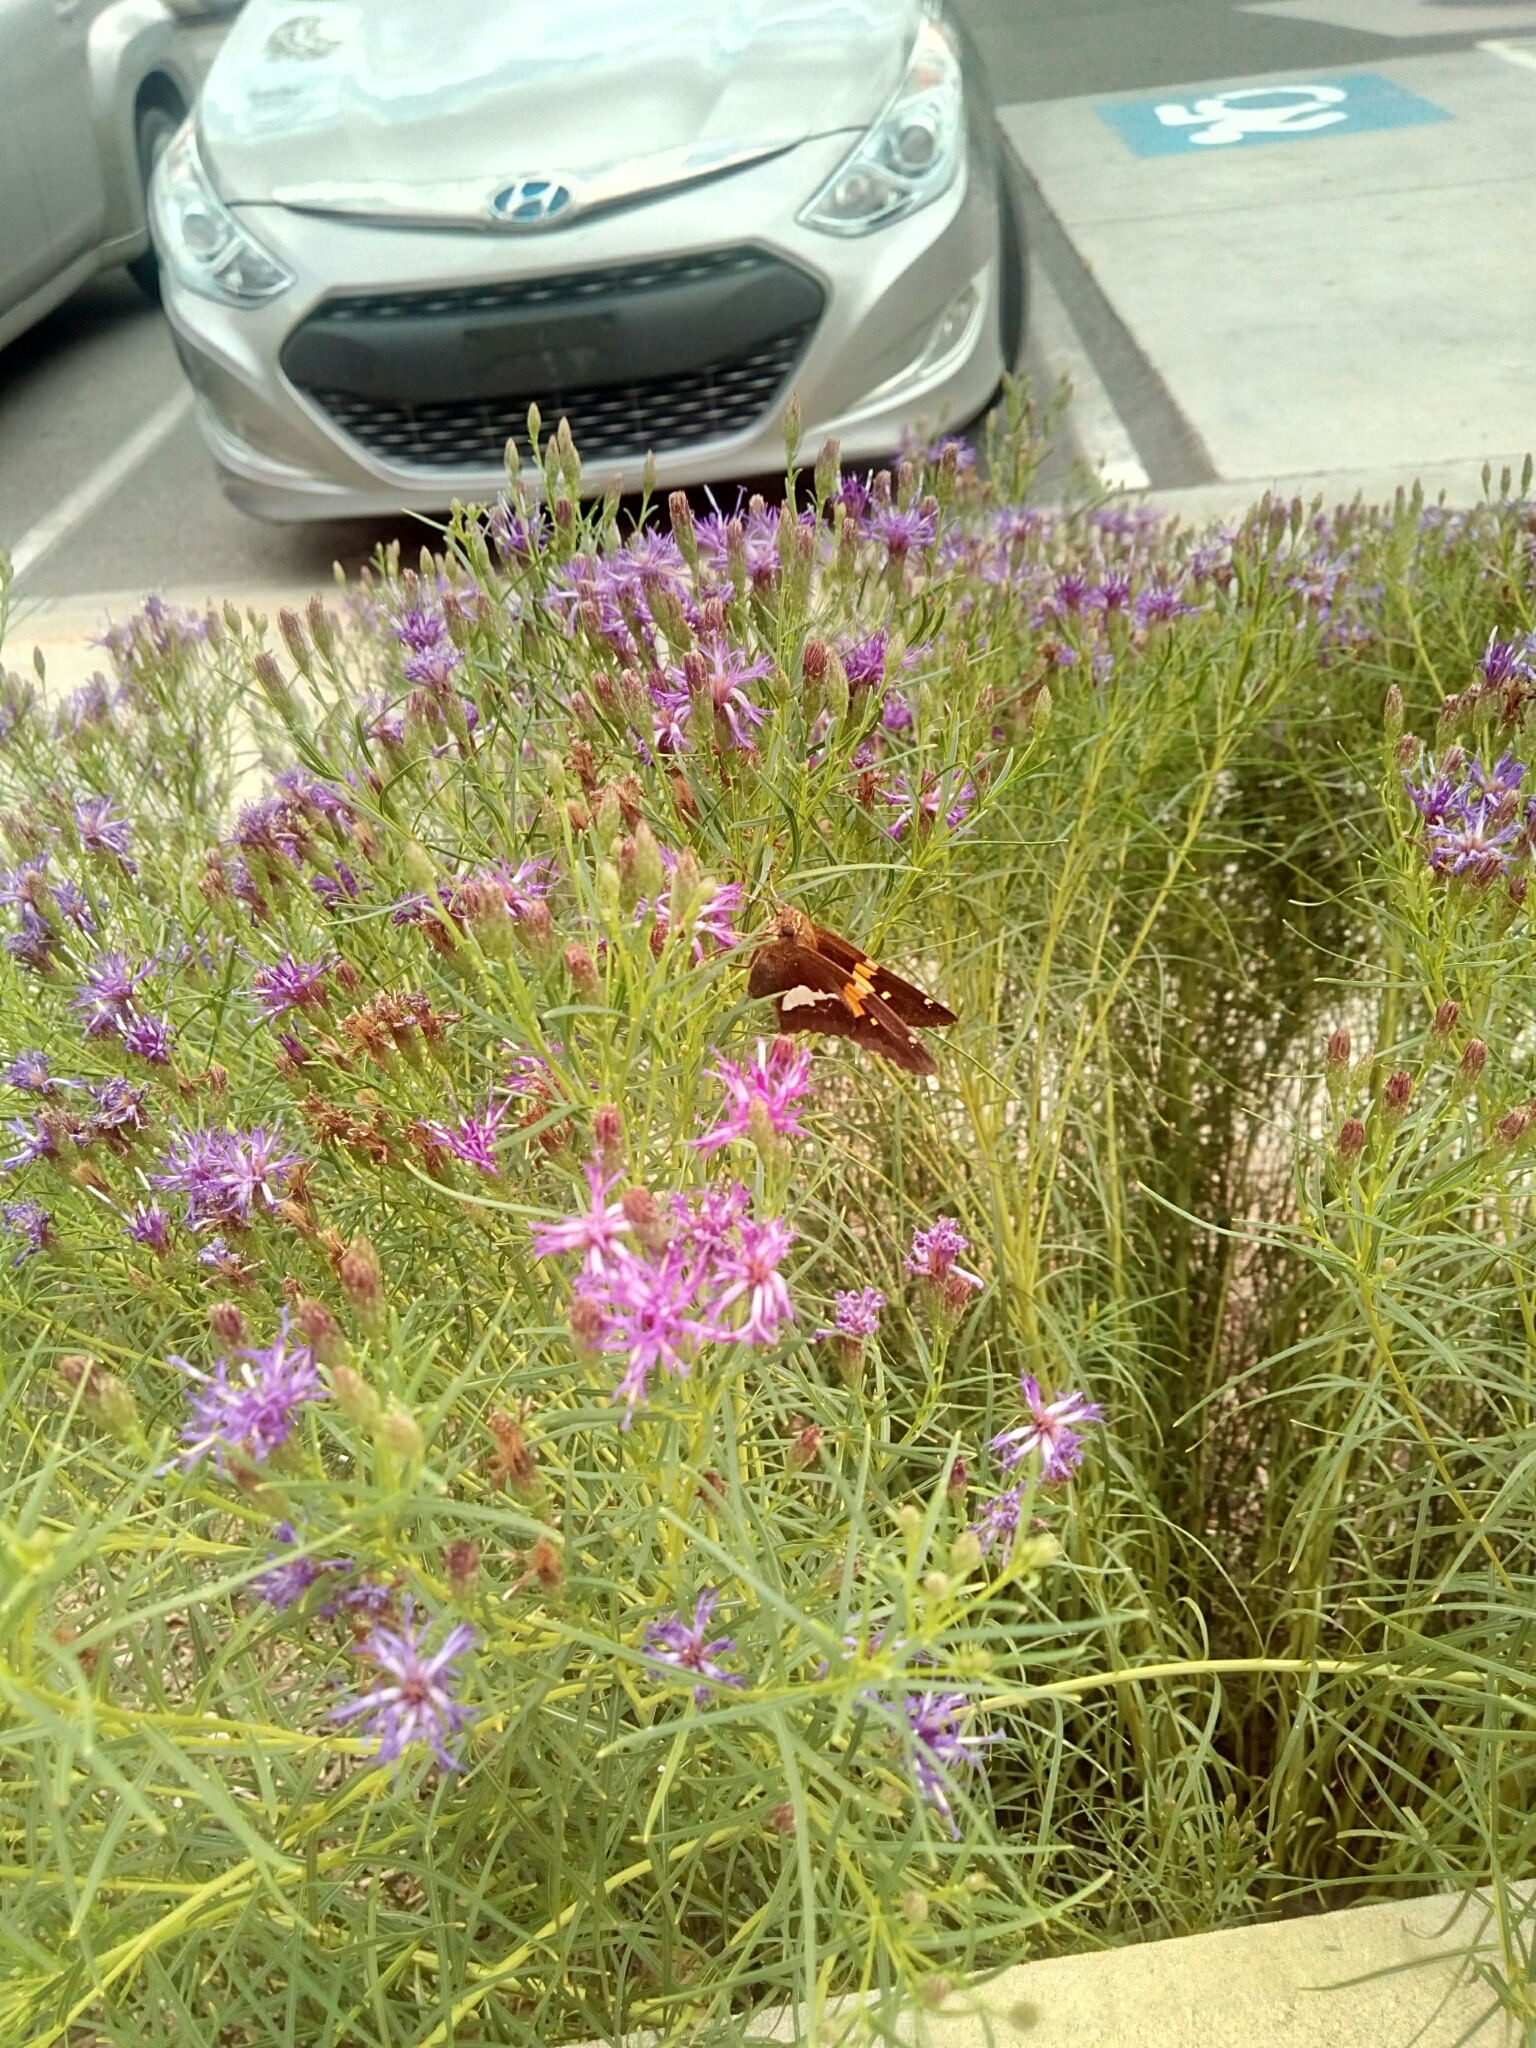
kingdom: Animalia
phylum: Arthropoda
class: Insecta
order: Lepidoptera
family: Hesperiidae
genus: Epargyreus
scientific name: Epargyreus clarus
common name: Silver-spotted skipper
